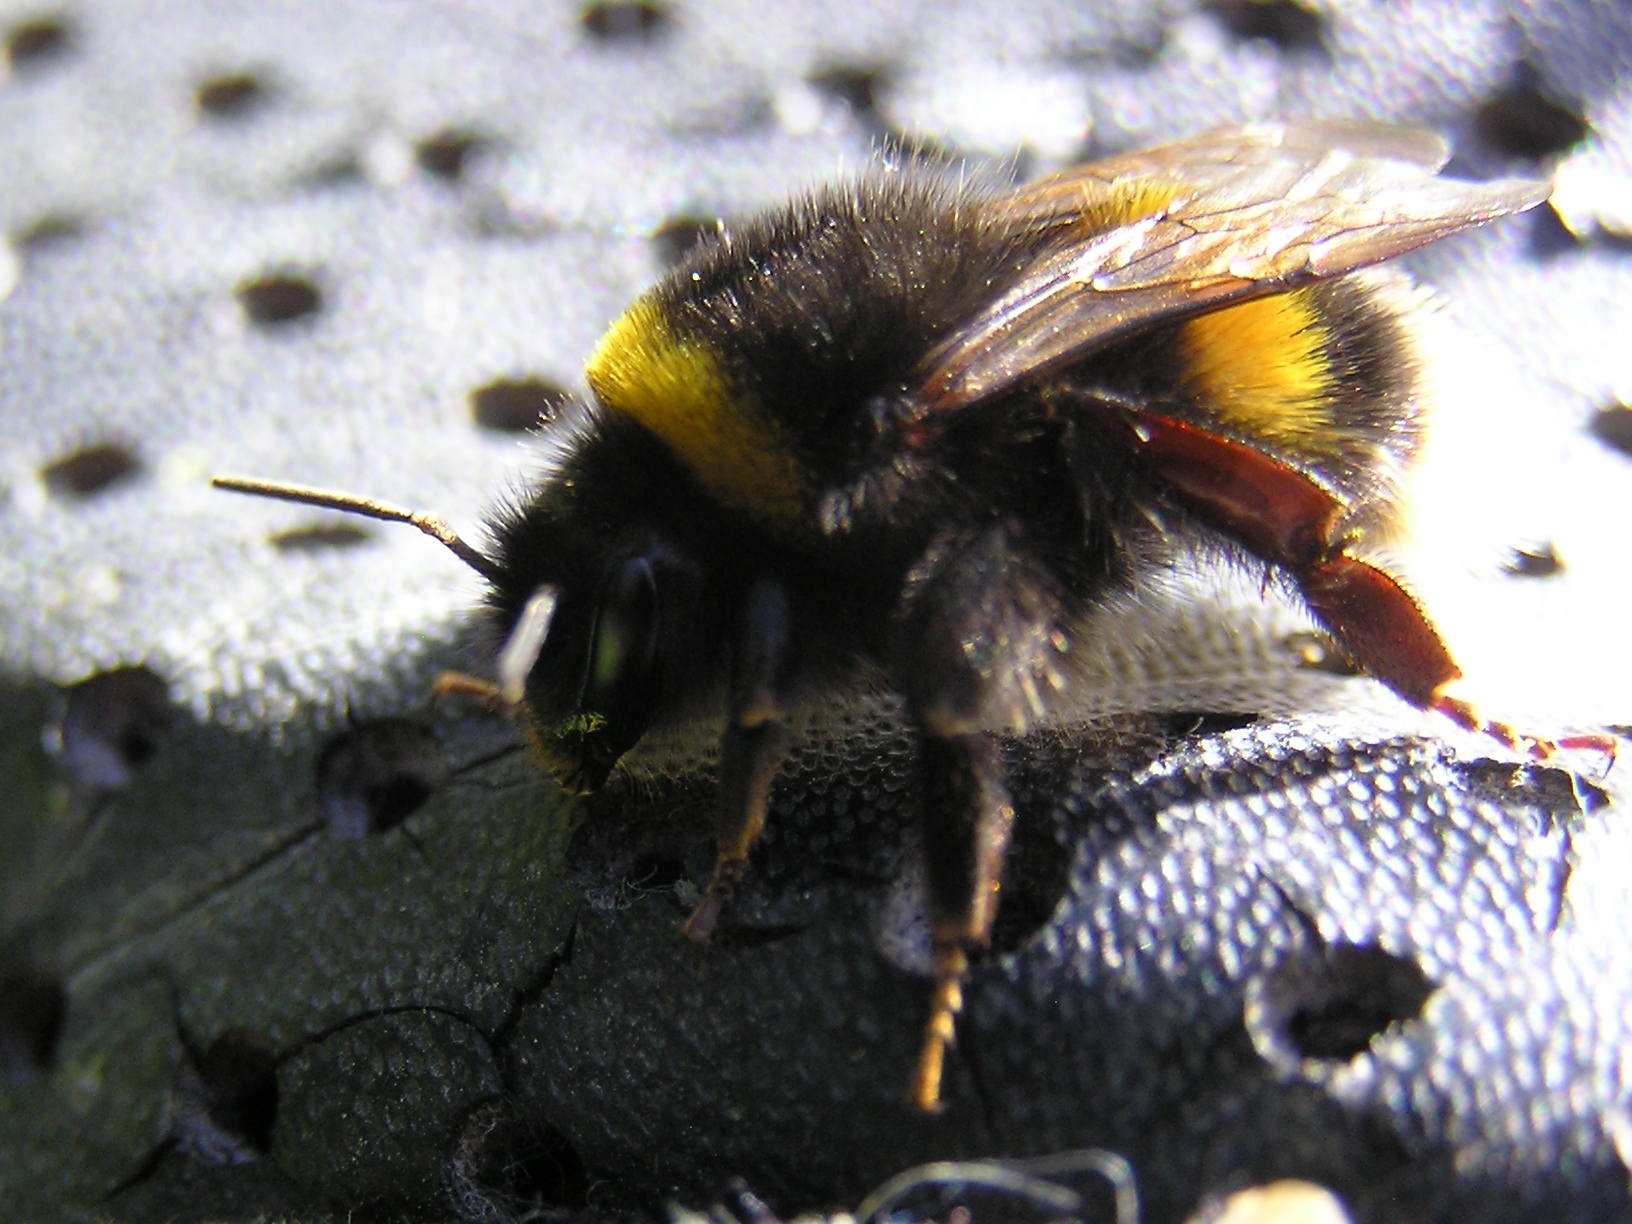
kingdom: Animalia
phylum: Arthropoda
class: Insecta
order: Hymenoptera
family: Apidae
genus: Bombus
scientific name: Bombus terrestris
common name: Buff-tailed bumblebee
